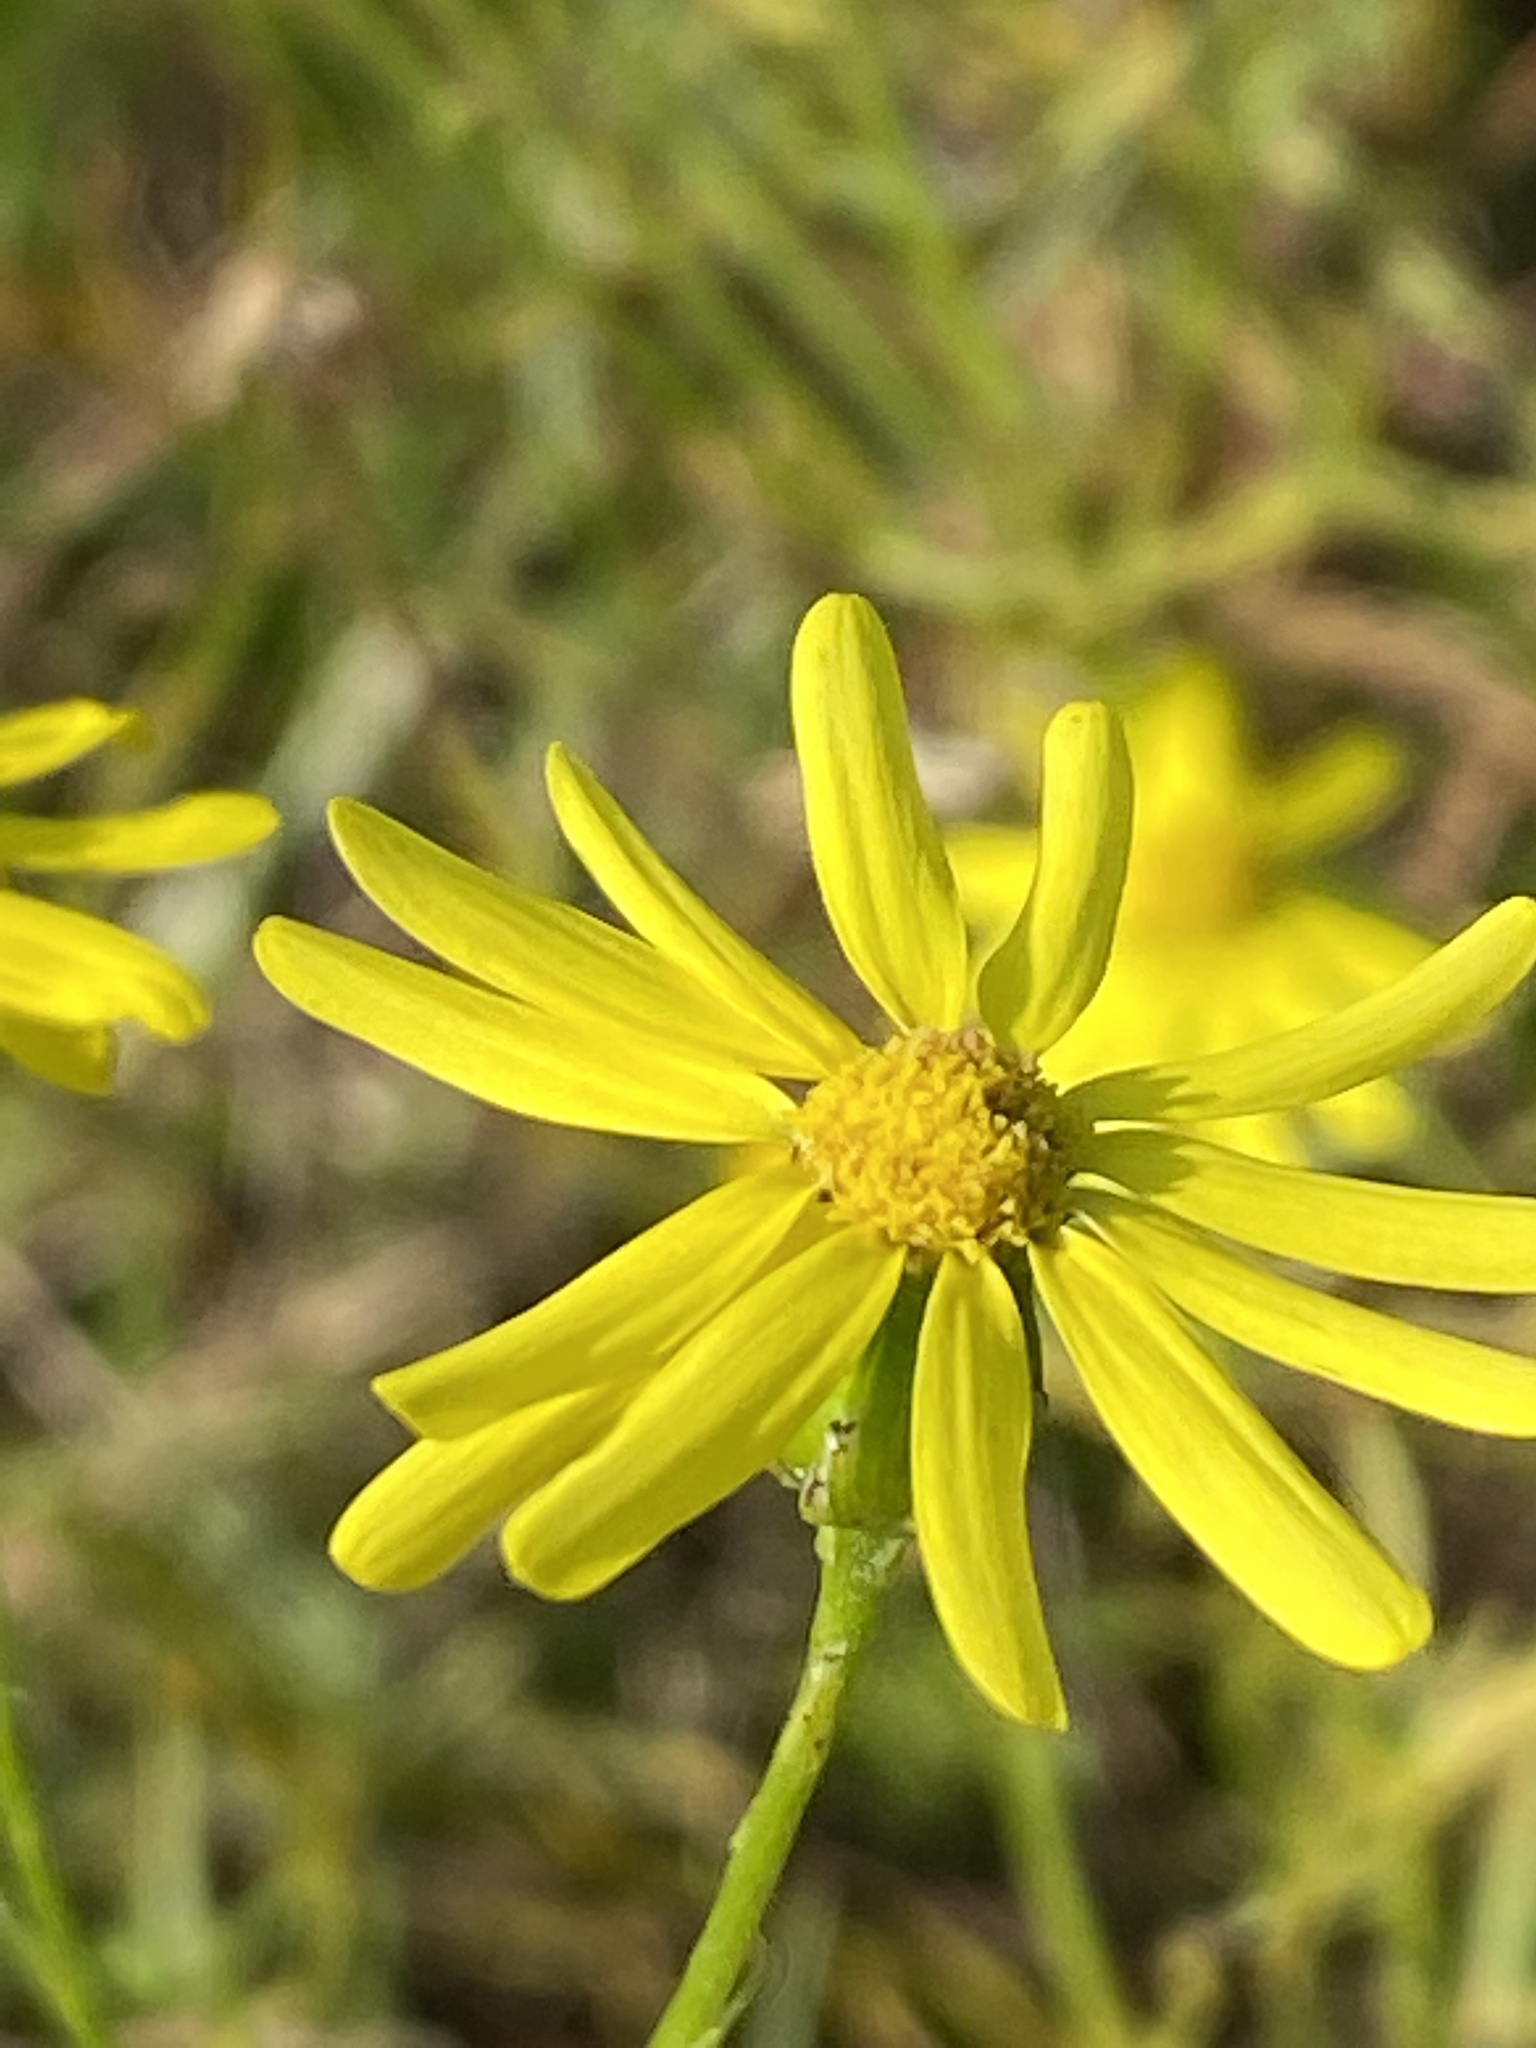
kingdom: Plantae
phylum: Tracheophyta
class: Magnoliopsida
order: Asterales
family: Asteraceae
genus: Senecio
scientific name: Senecio inaequidens
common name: Narrow-leaved ragwort
